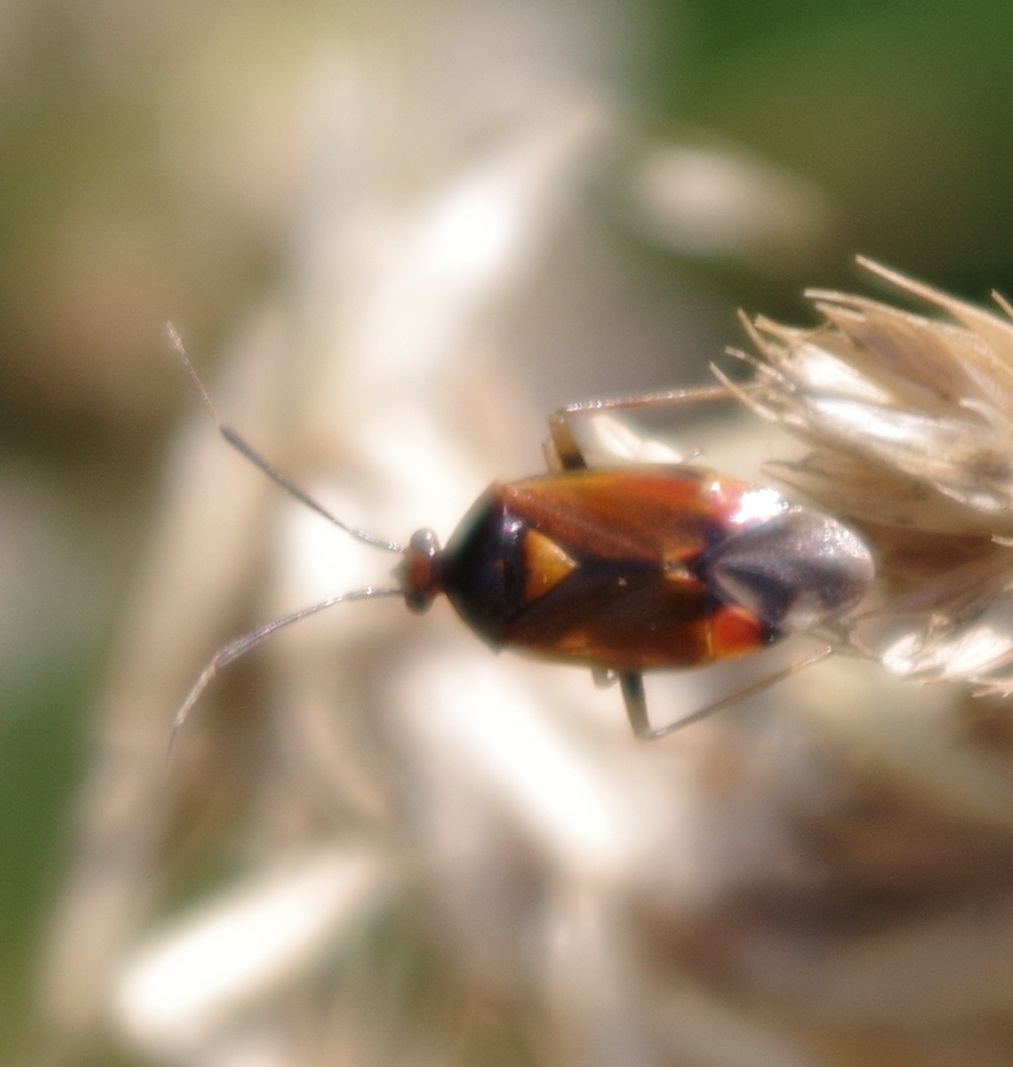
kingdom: Animalia
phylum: Arthropoda
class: Insecta
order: Hemiptera
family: Miridae
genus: Deraeocoris
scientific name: Deraeocoris ruber
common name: Plant bug
